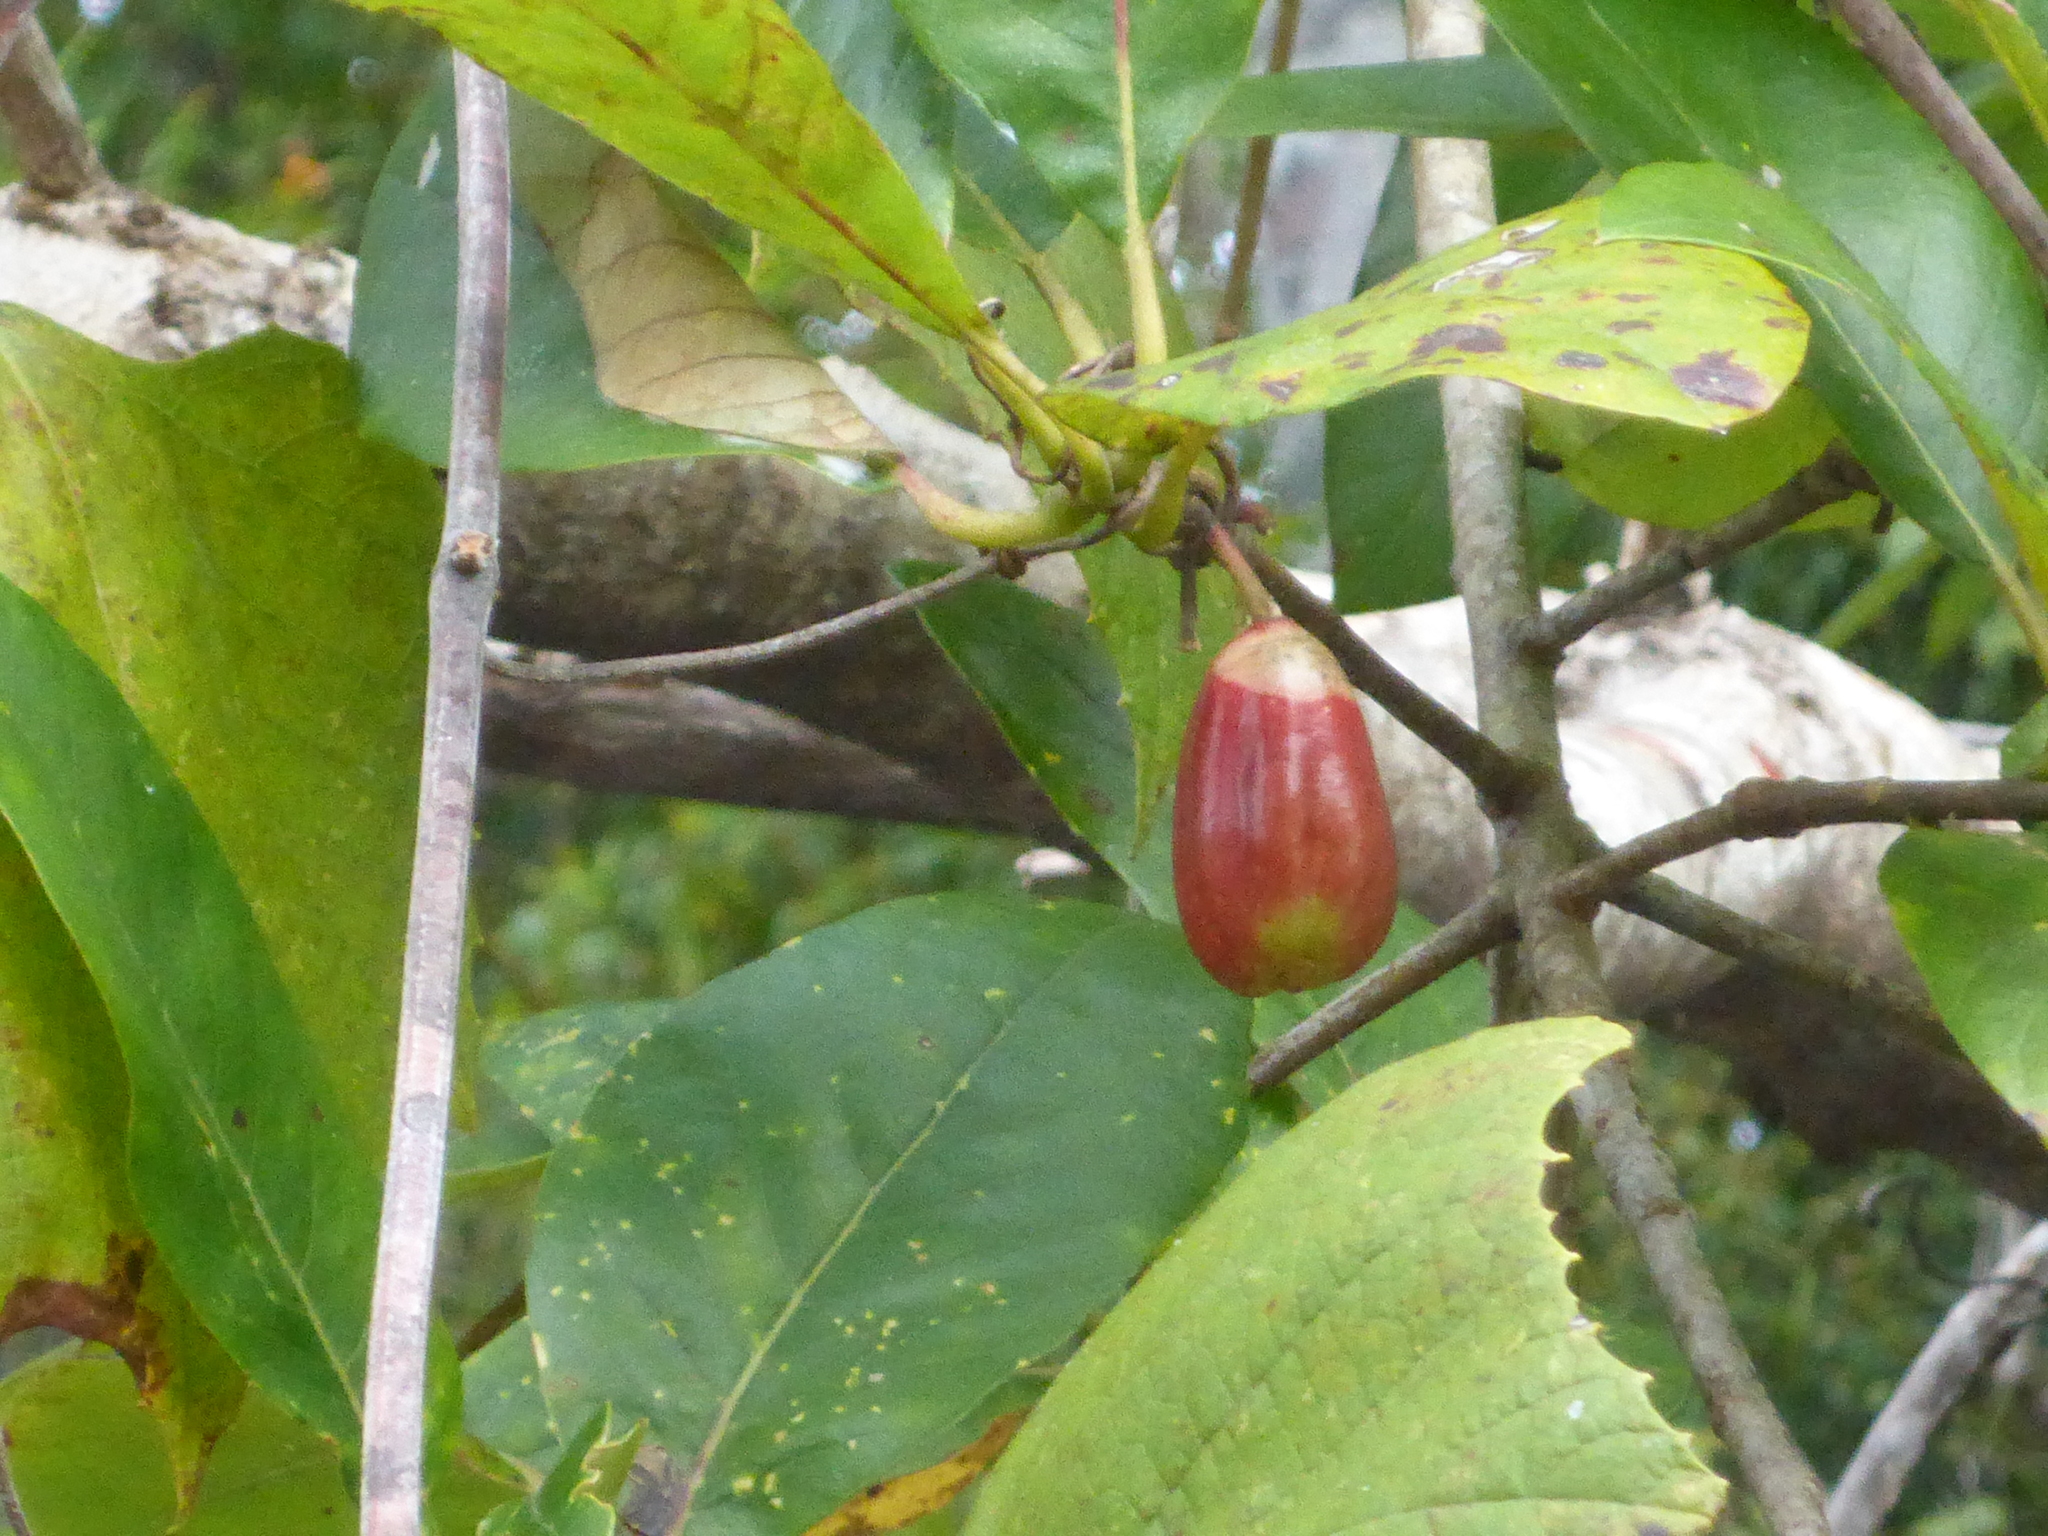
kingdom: Plantae
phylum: Tracheophyta
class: Magnoliopsida
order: Cornales
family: Nyssaceae
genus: Nyssa
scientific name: Nyssa ogeche
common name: Ogeechee tupelo
